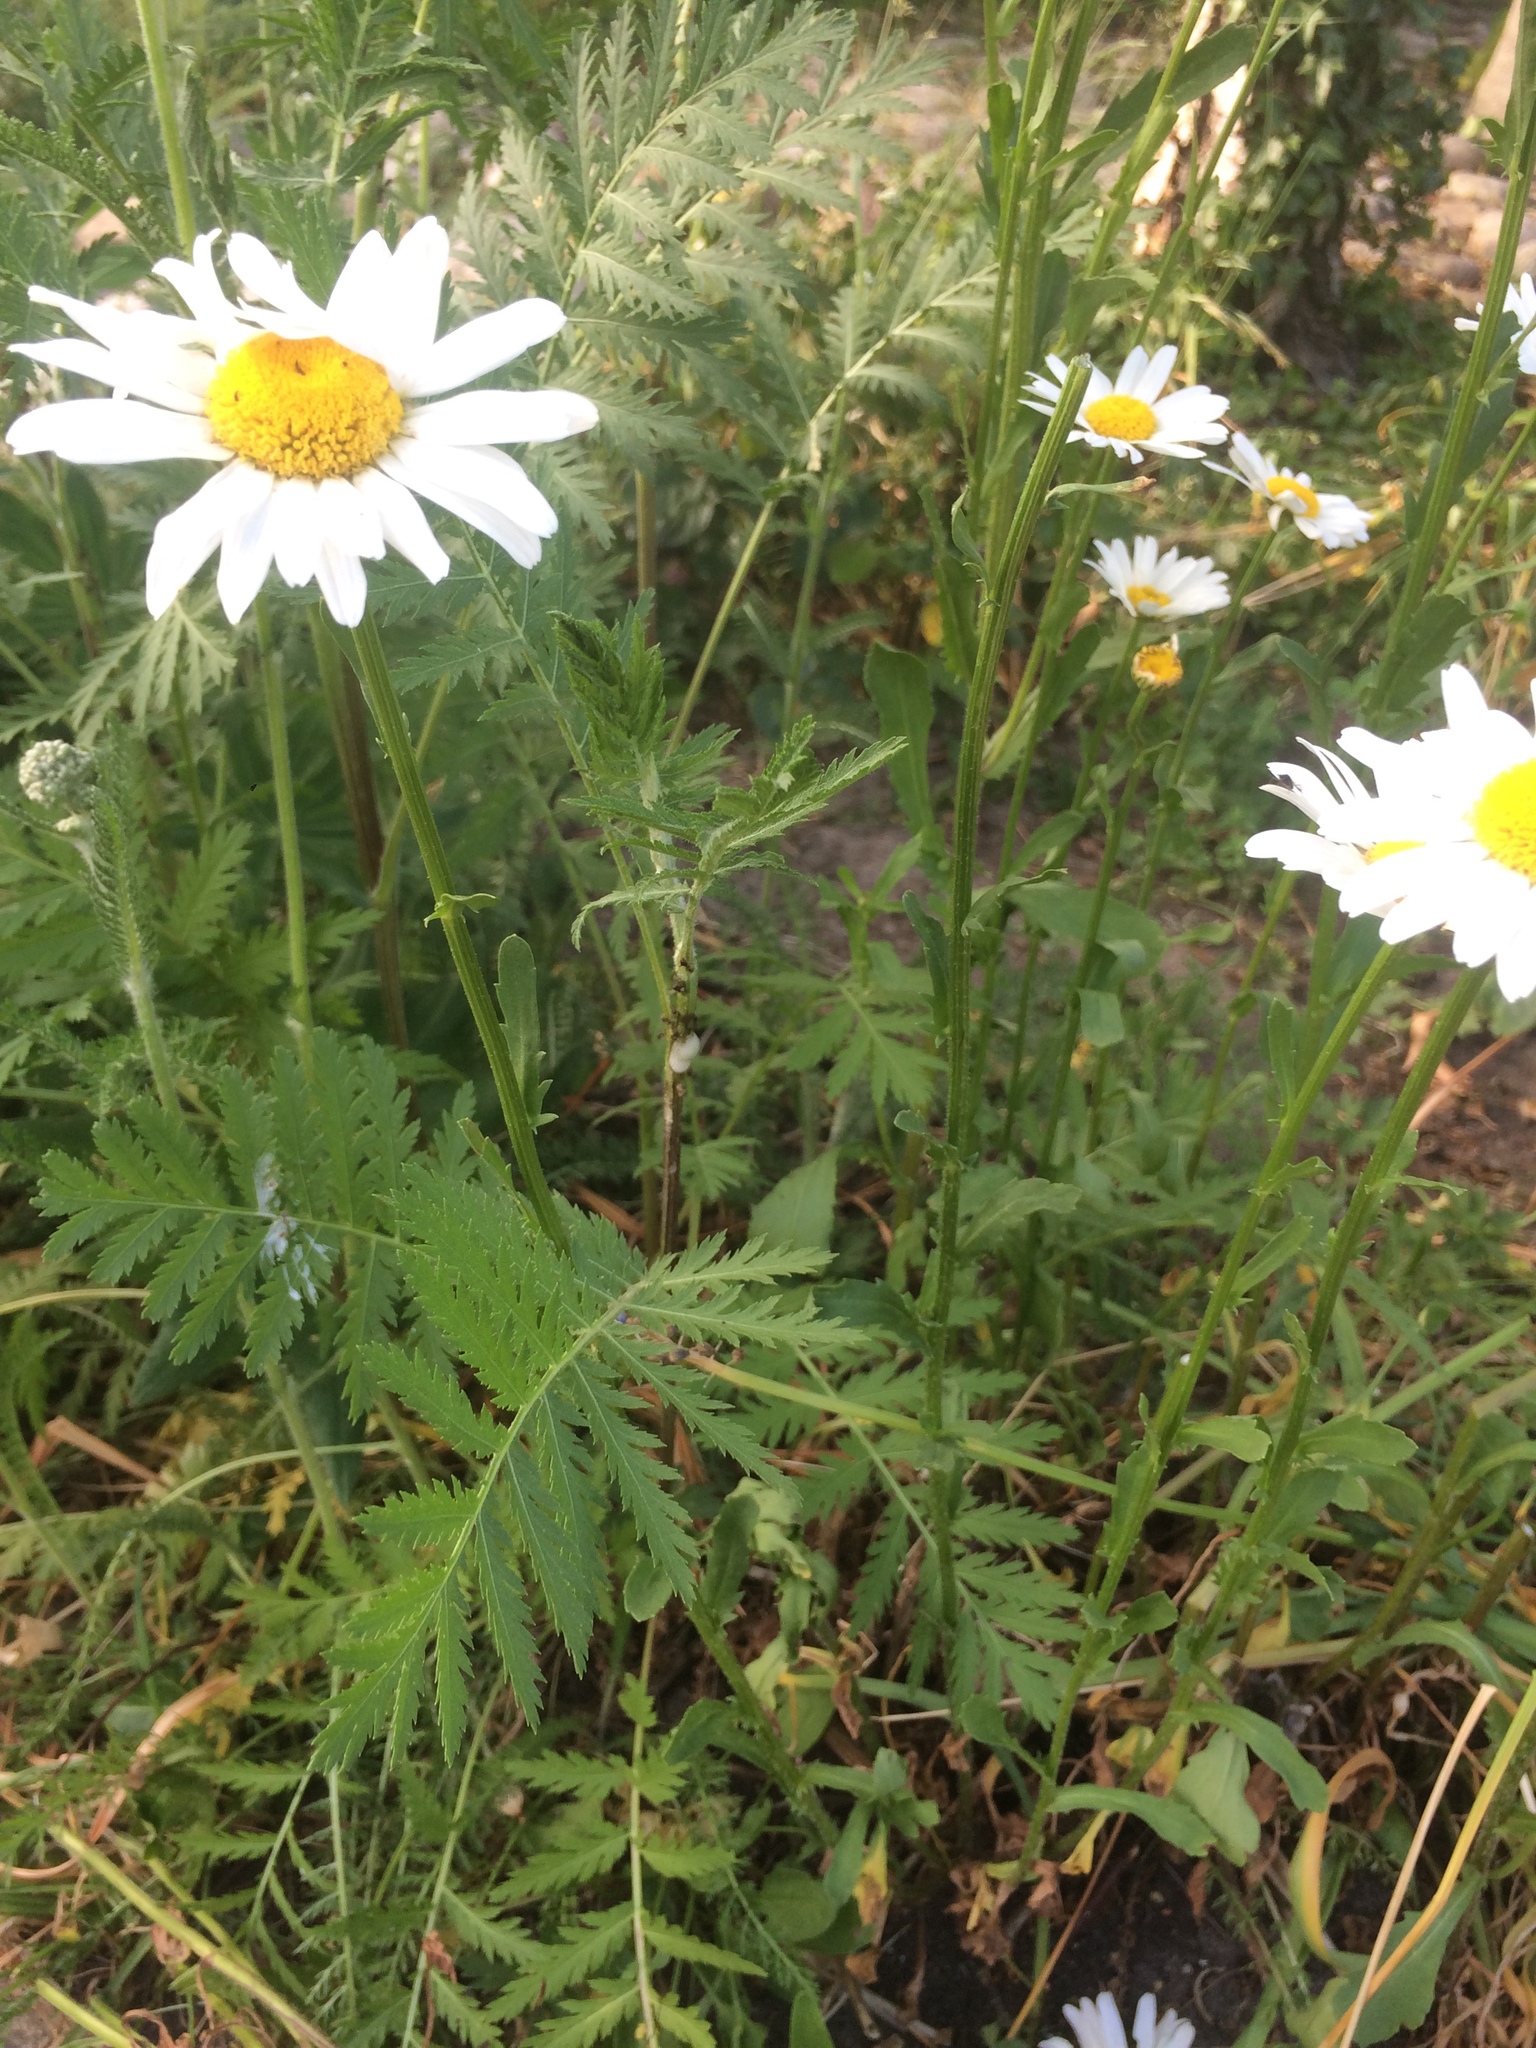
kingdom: Plantae
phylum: Tracheophyta
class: Magnoliopsida
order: Asterales
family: Asteraceae
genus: Leucanthemum
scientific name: Leucanthemum vulgare
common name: Oxeye daisy
